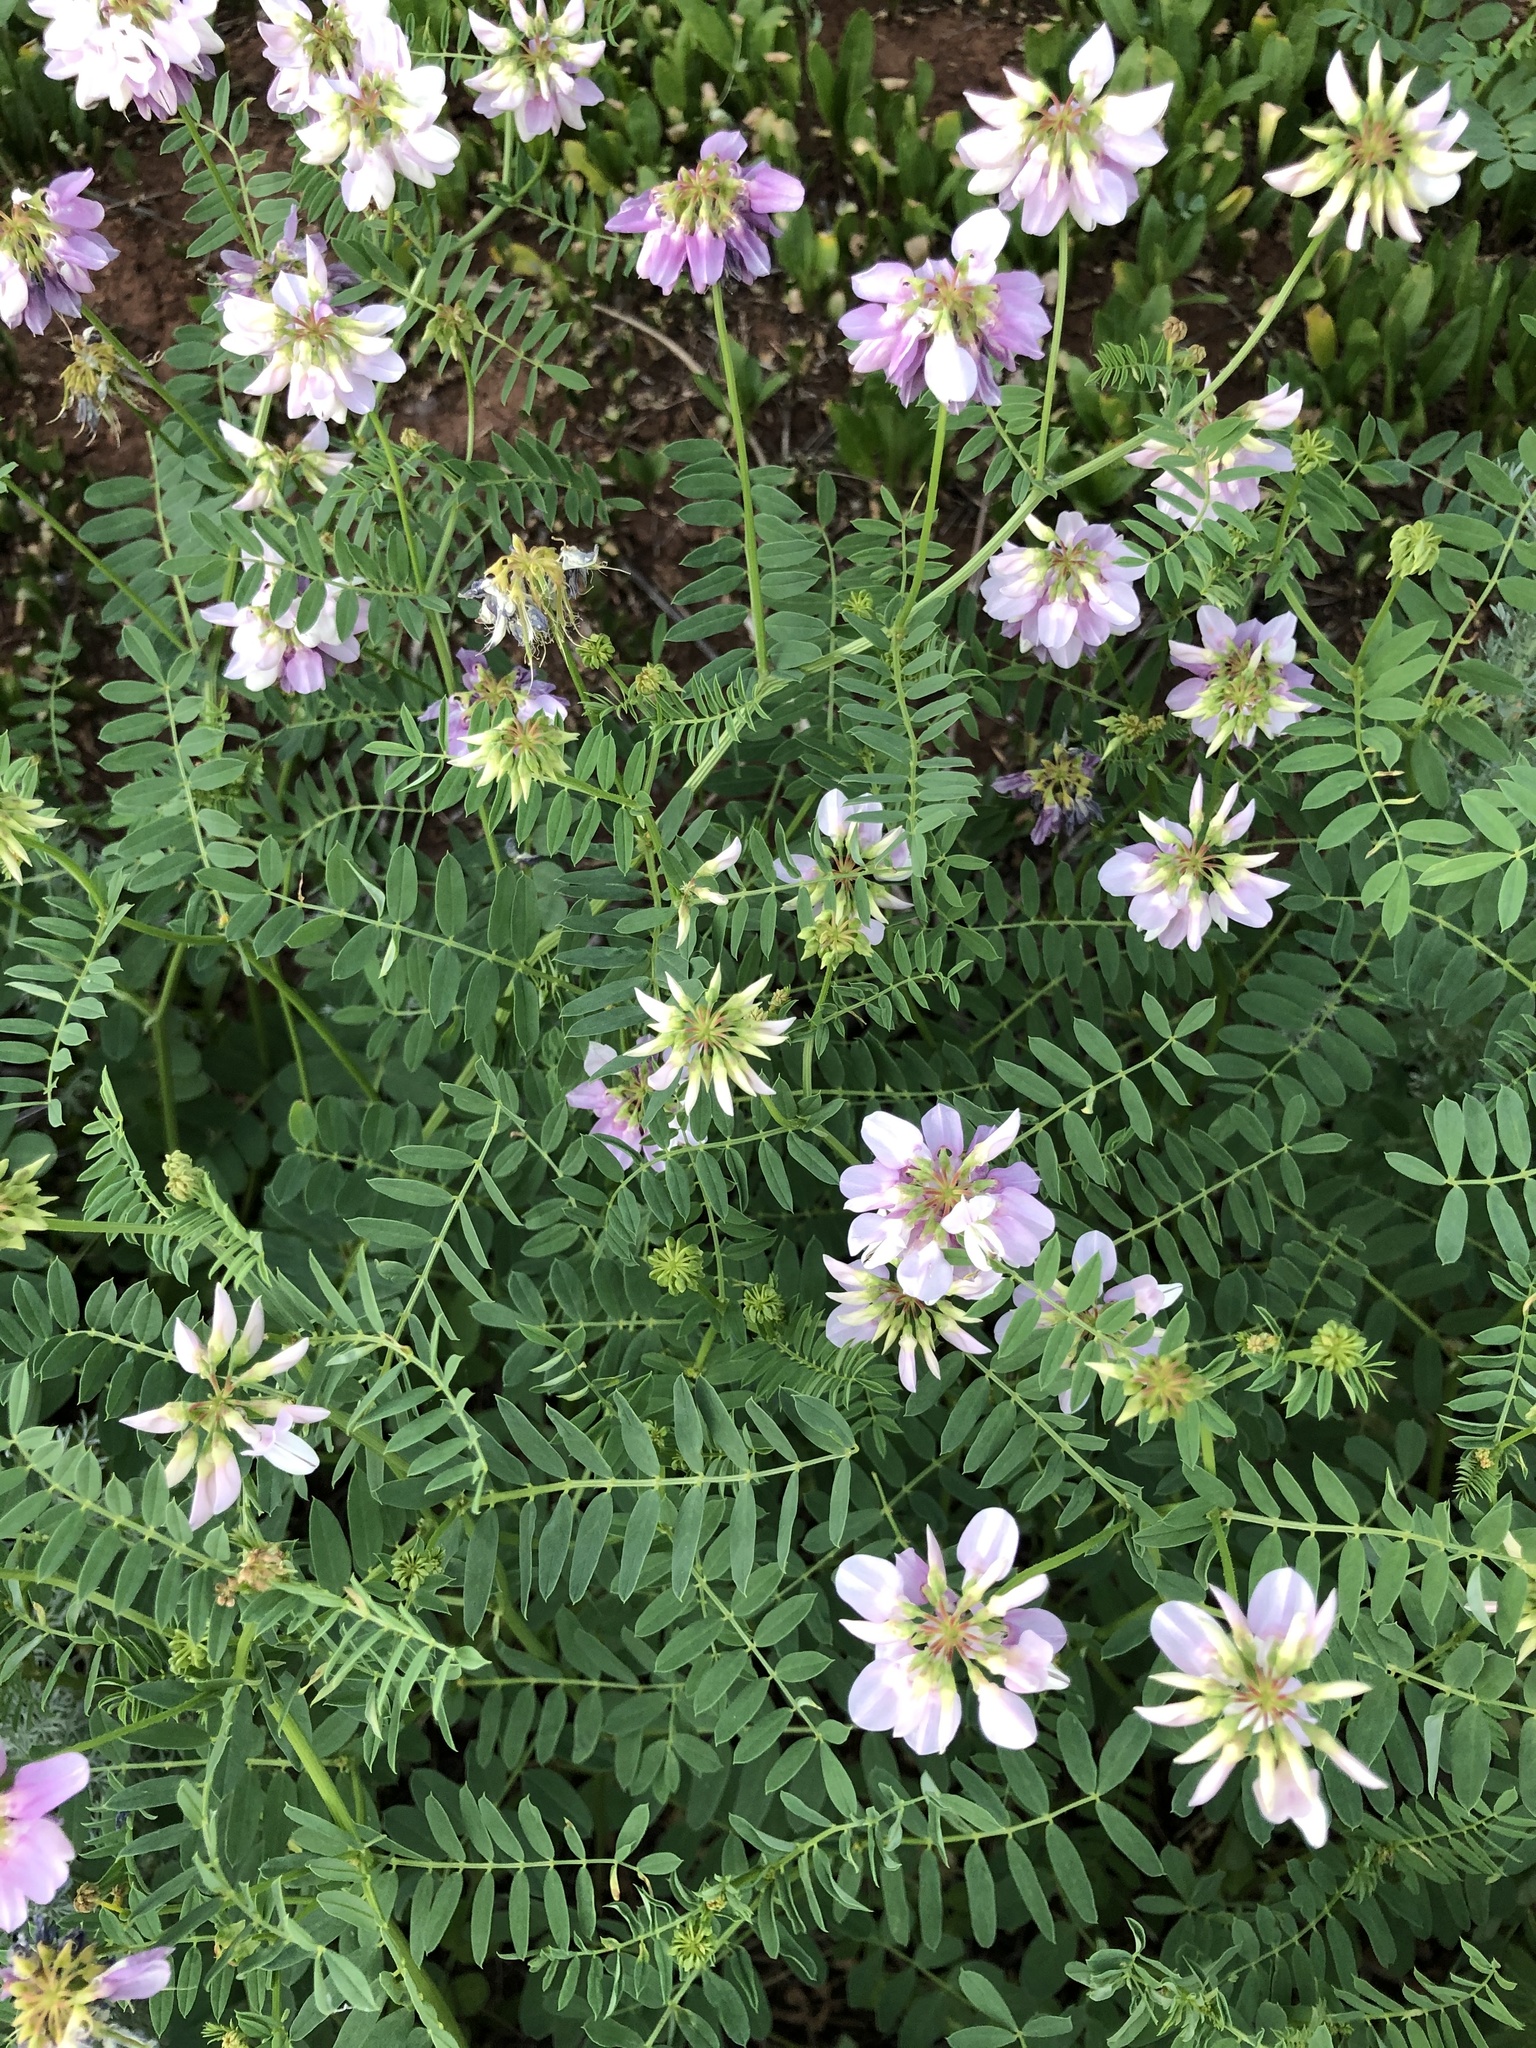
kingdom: Plantae
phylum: Tracheophyta
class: Magnoliopsida
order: Fabales
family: Fabaceae
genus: Coronilla
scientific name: Coronilla varia
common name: Crownvetch
